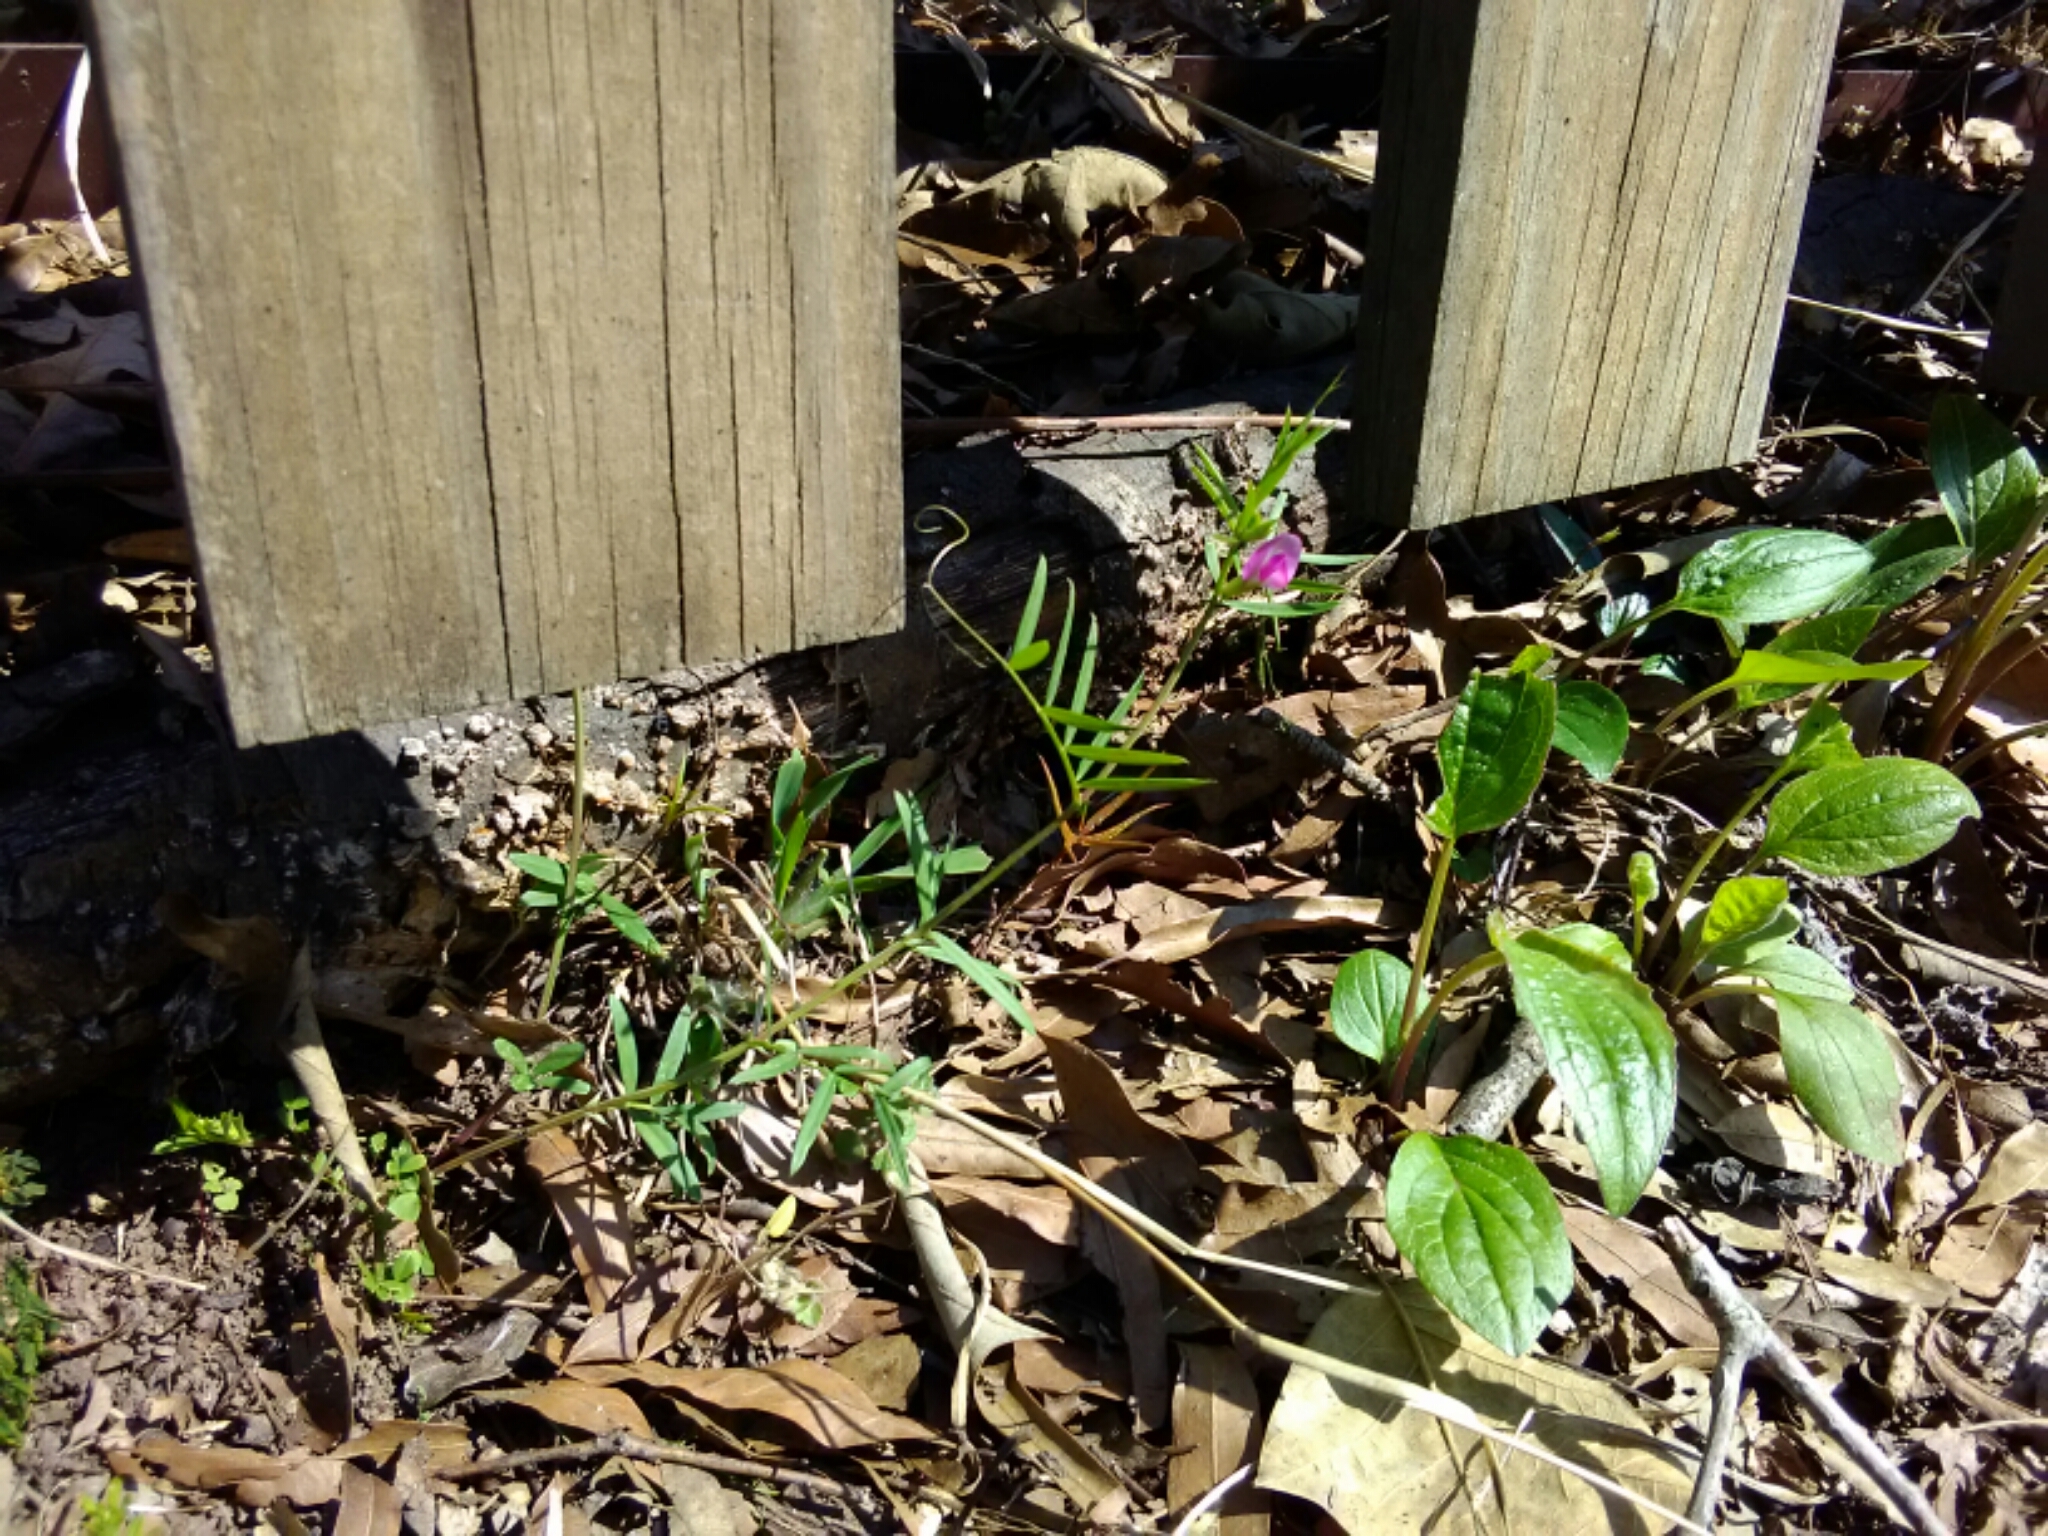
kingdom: Plantae
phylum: Tracheophyta
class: Magnoliopsida
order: Fabales
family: Fabaceae
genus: Vicia
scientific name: Vicia sativa
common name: Garden vetch
